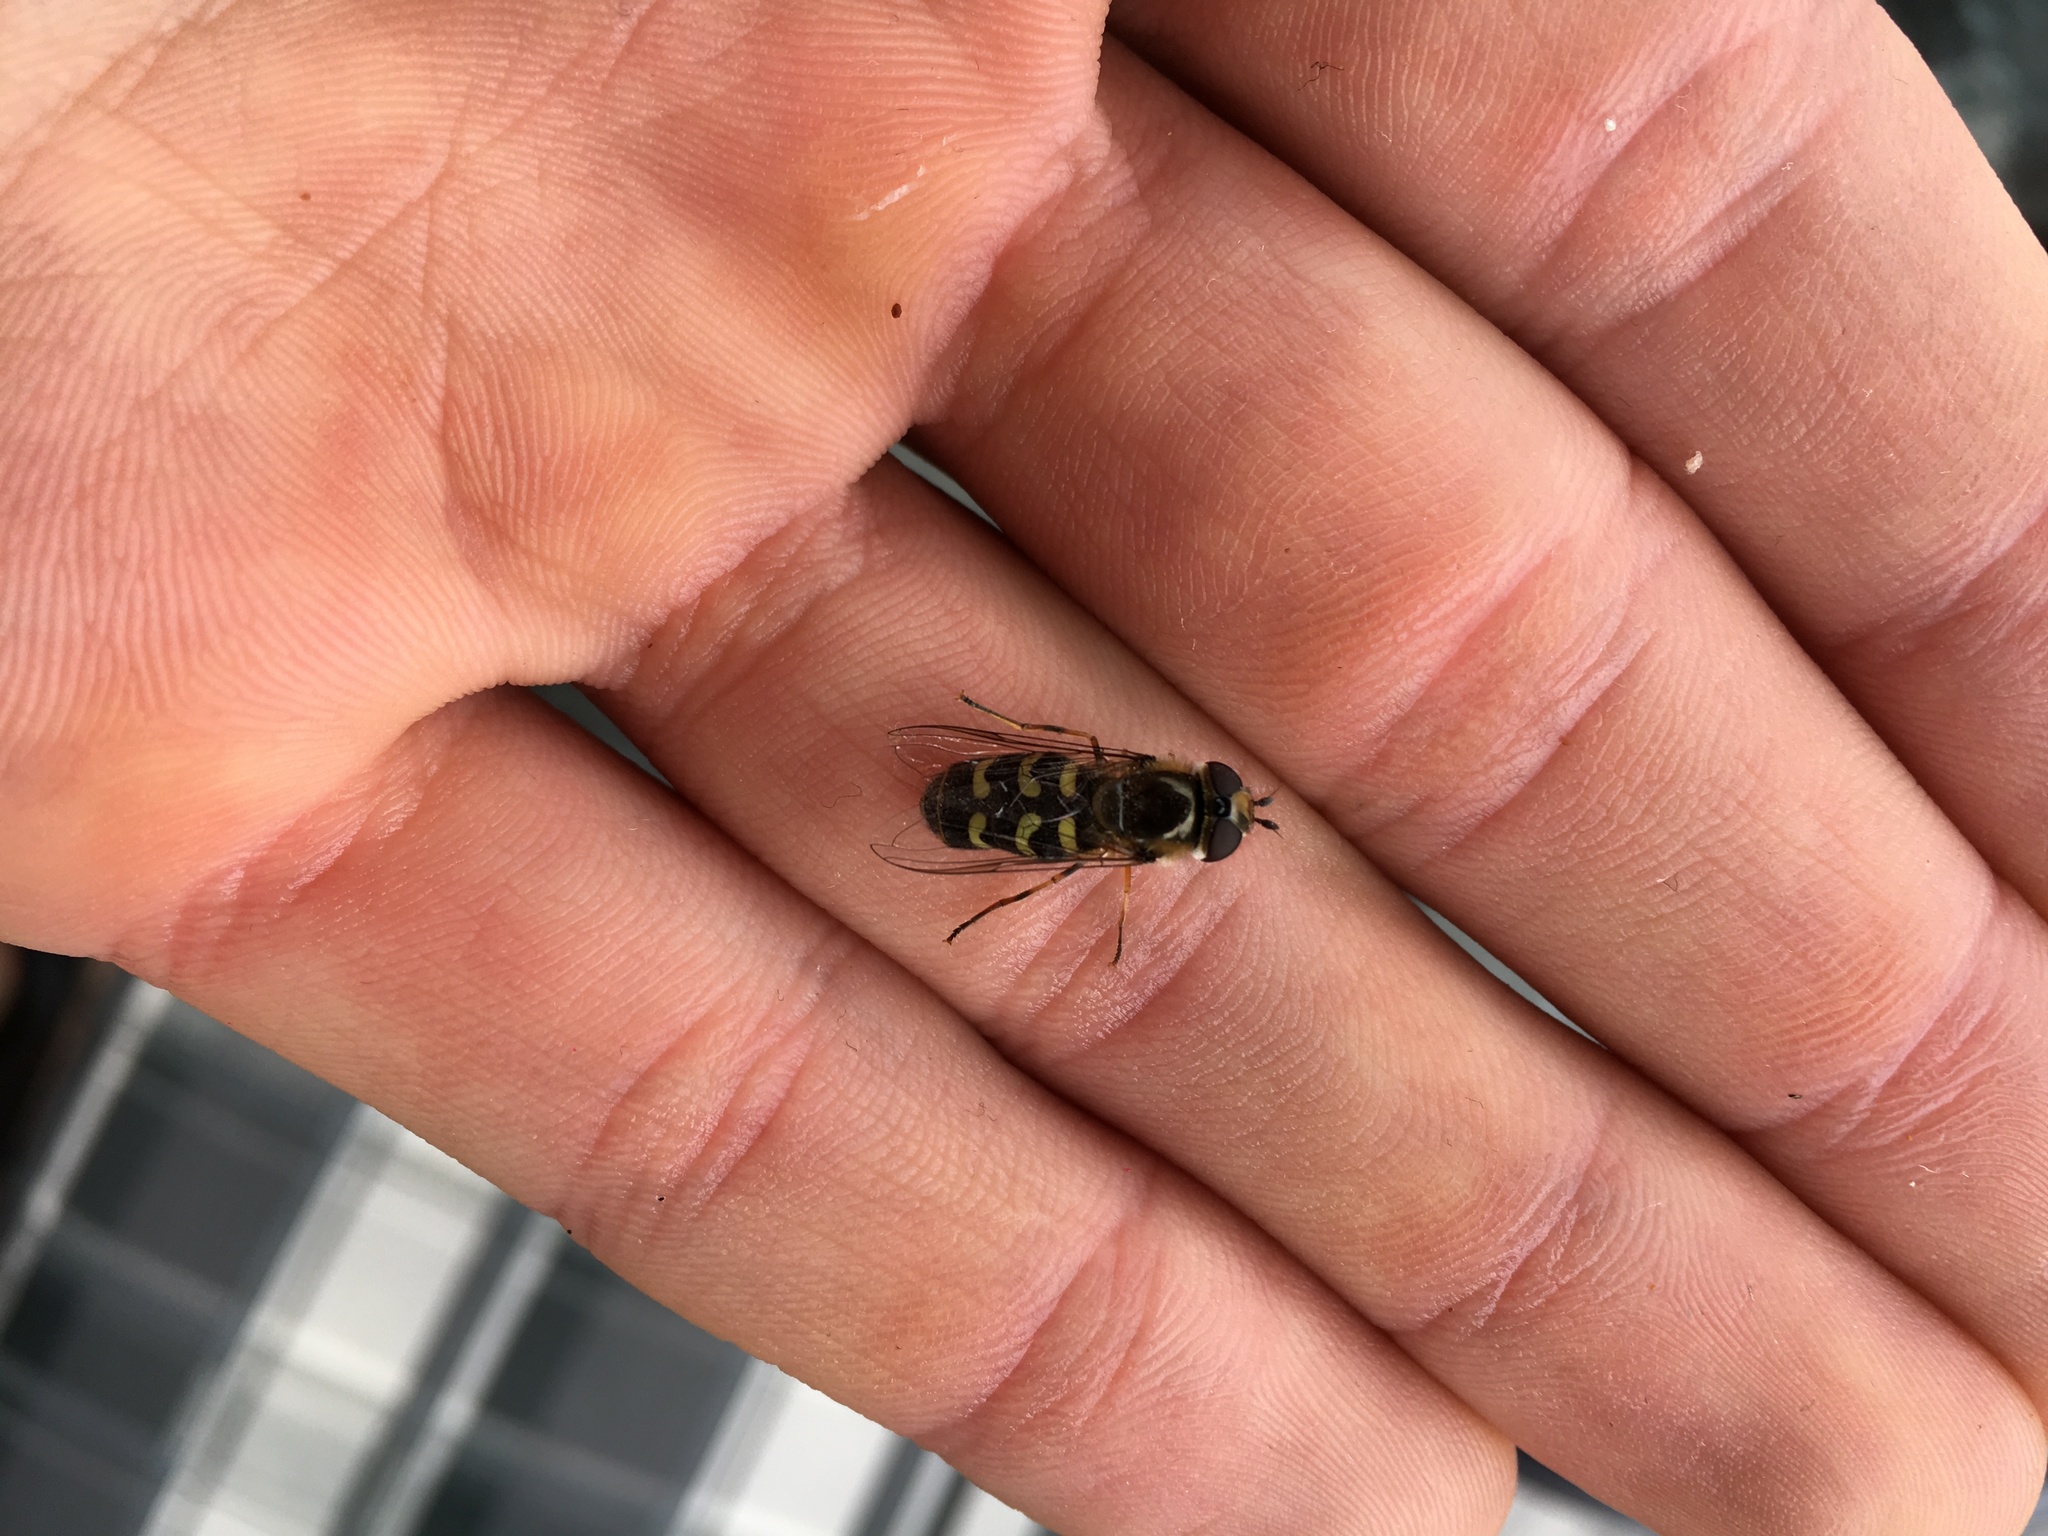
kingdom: Animalia
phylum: Arthropoda
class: Insecta
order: Diptera
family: Syrphidae
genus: Scaeva
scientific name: Scaeva pyrastri
